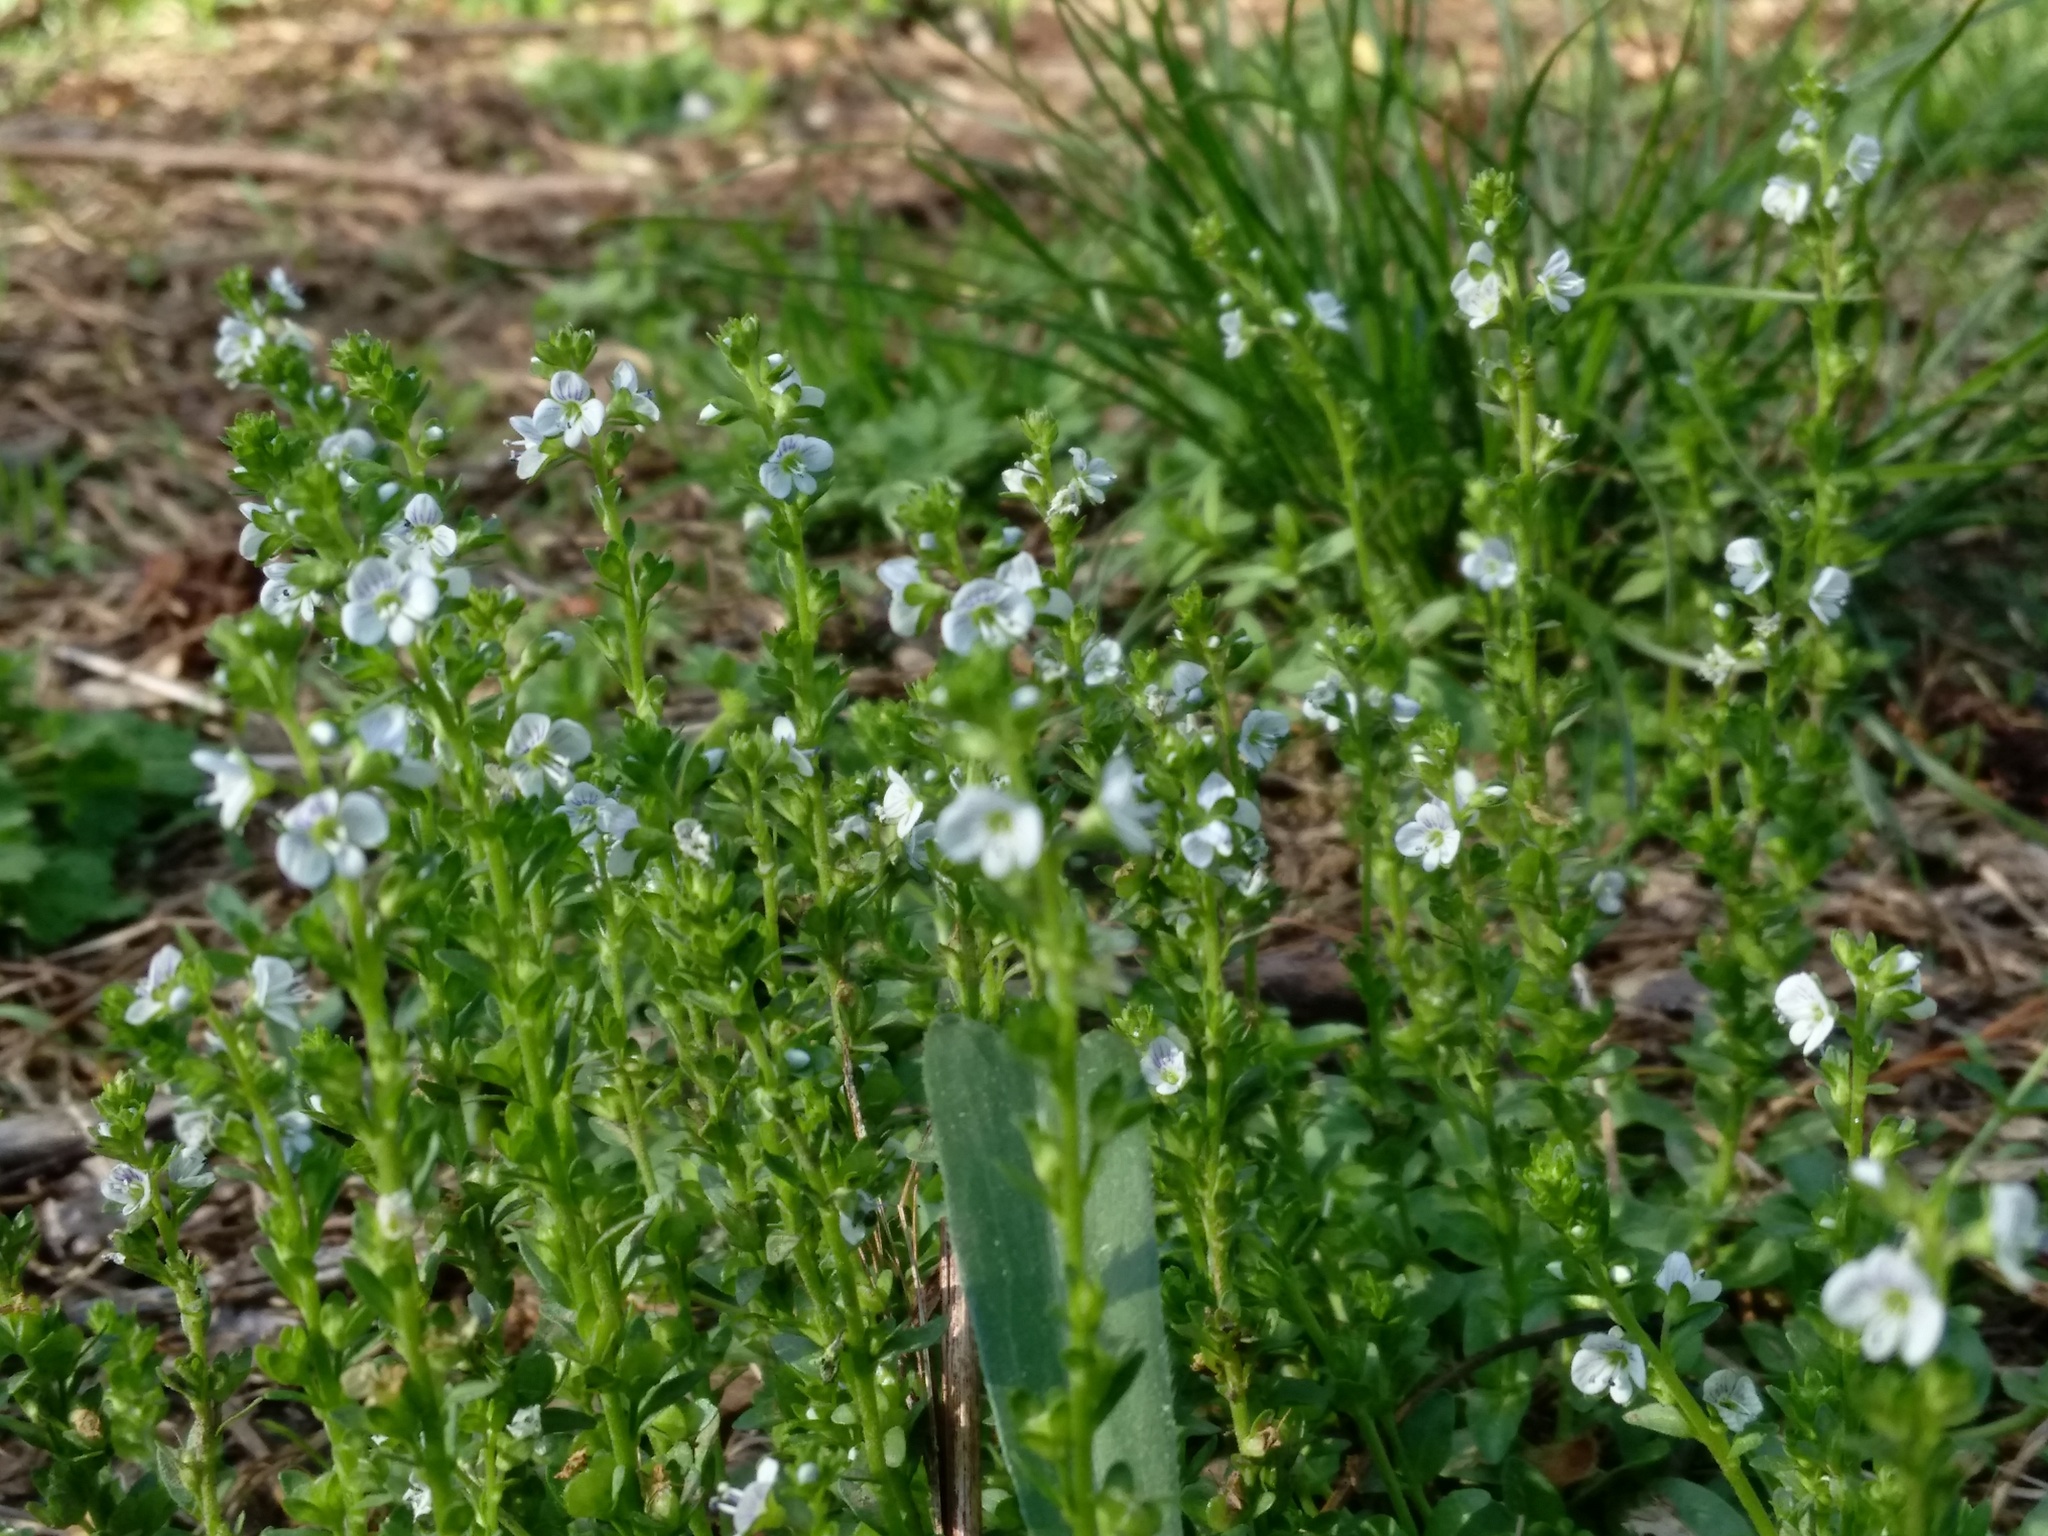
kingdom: Plantae
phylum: Tracheophyta
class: Magnoliopsida
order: Lamiales
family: Plantaginaceae
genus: Veronica
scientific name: Veronica serpyllifolia
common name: Thyme-leaved speedwell
